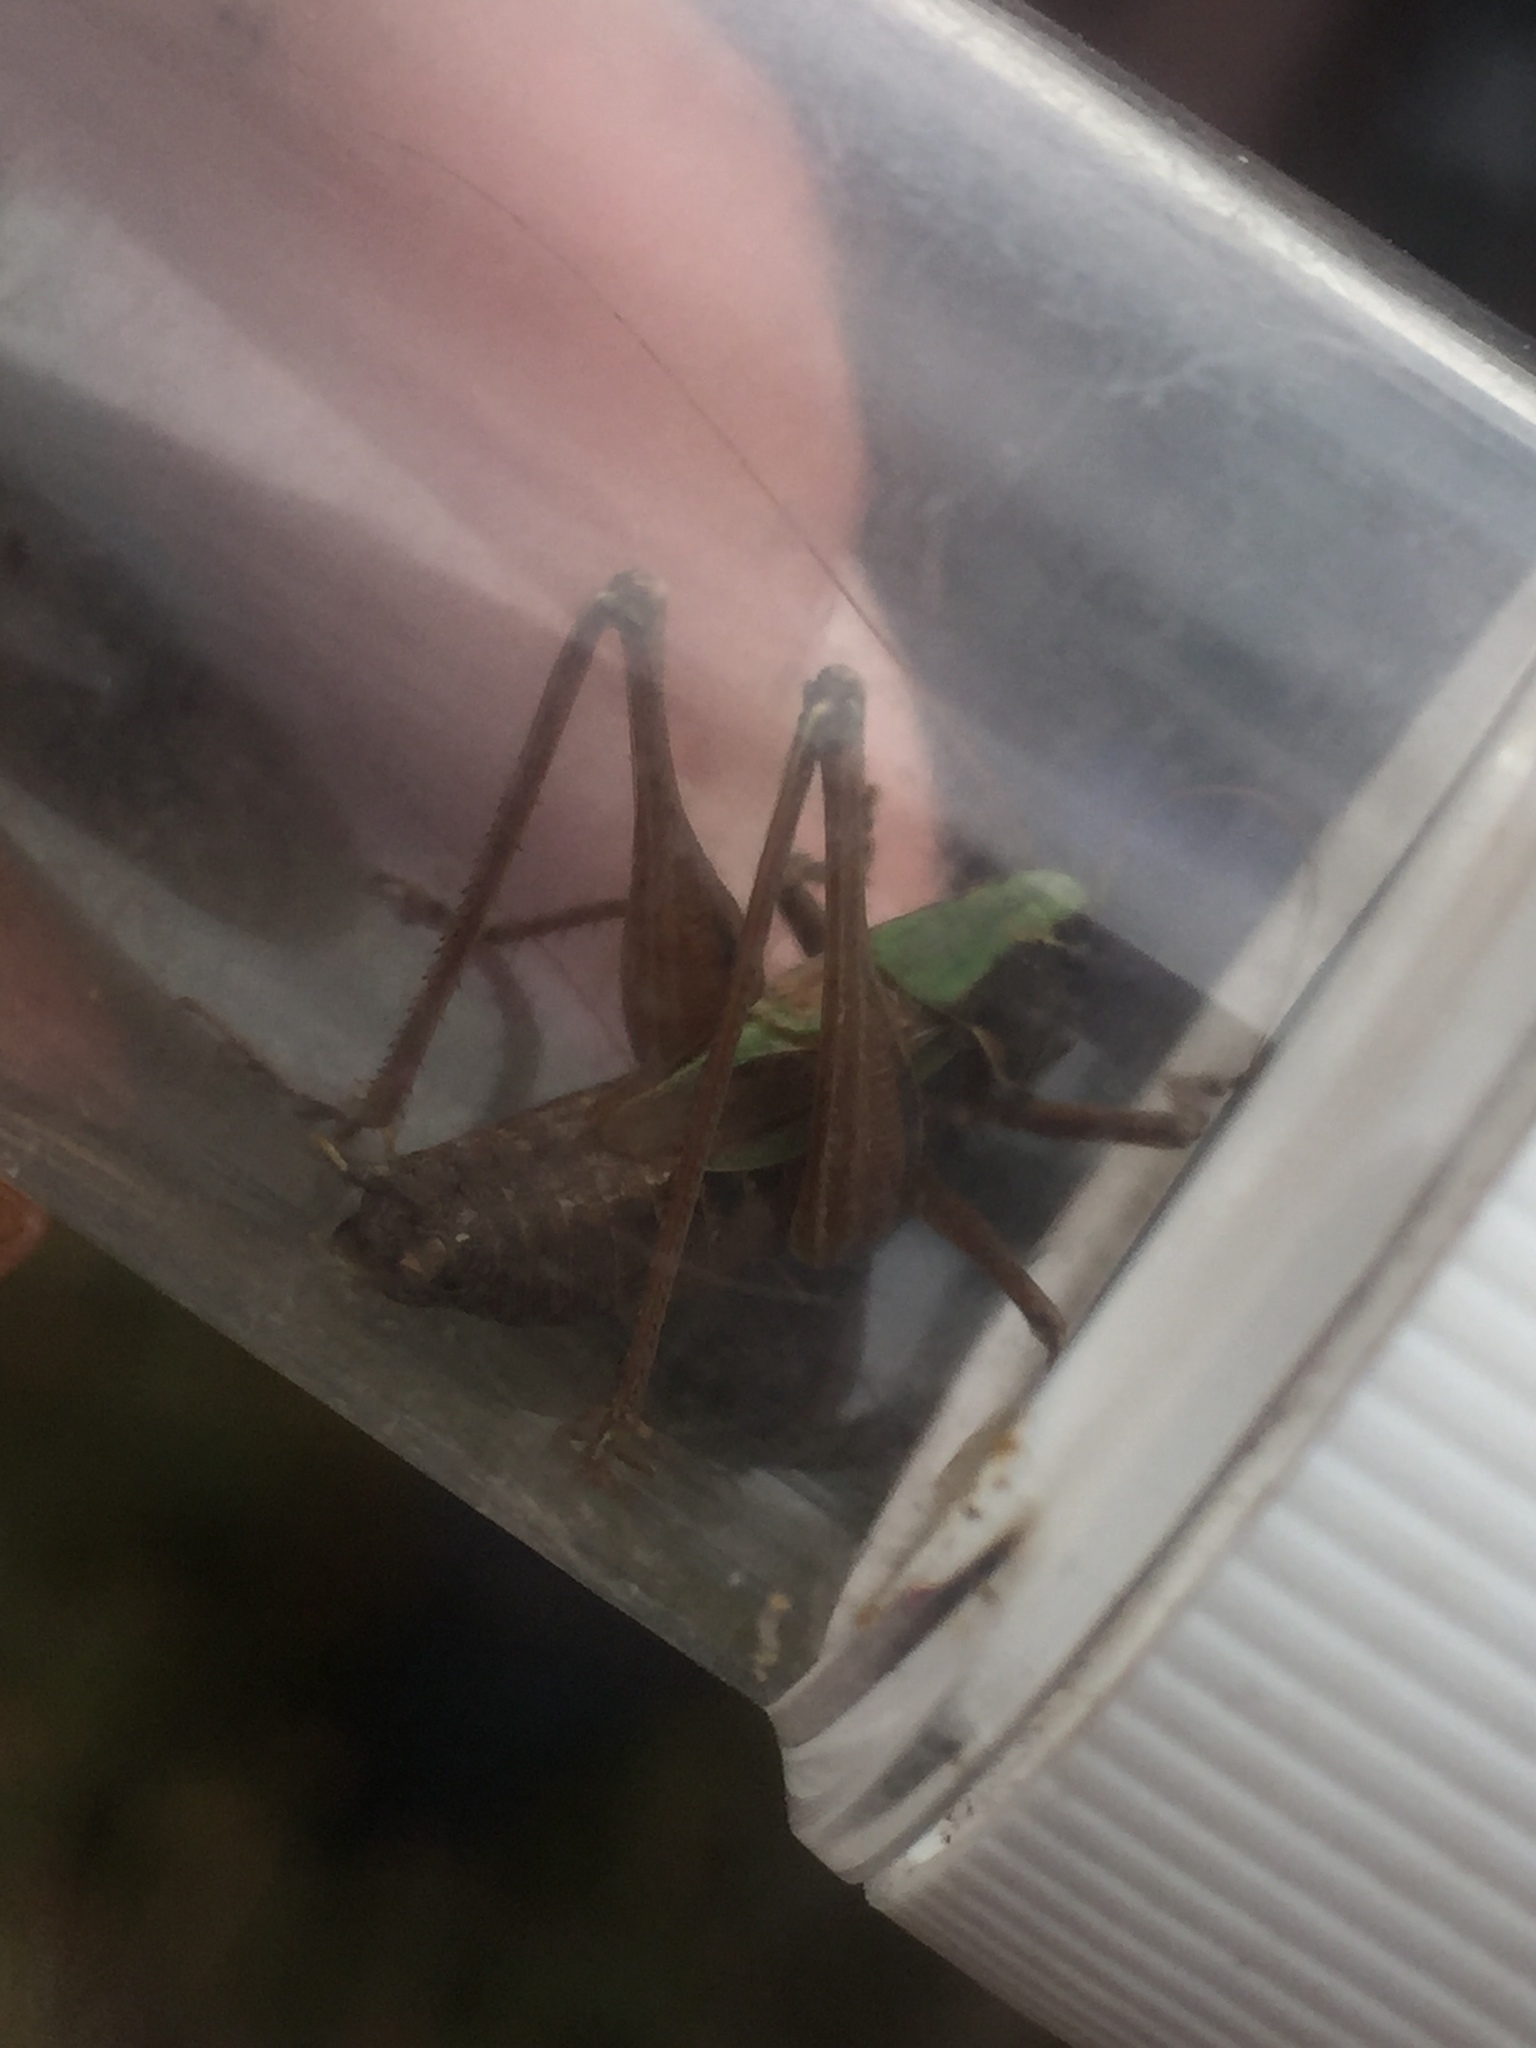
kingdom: Animalia
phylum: Arthropoda
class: Insecta
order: Orthoptera
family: Tettigoniidae
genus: Metrioptera
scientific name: Metrioptera brachyptera
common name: Bog bush-cricket
